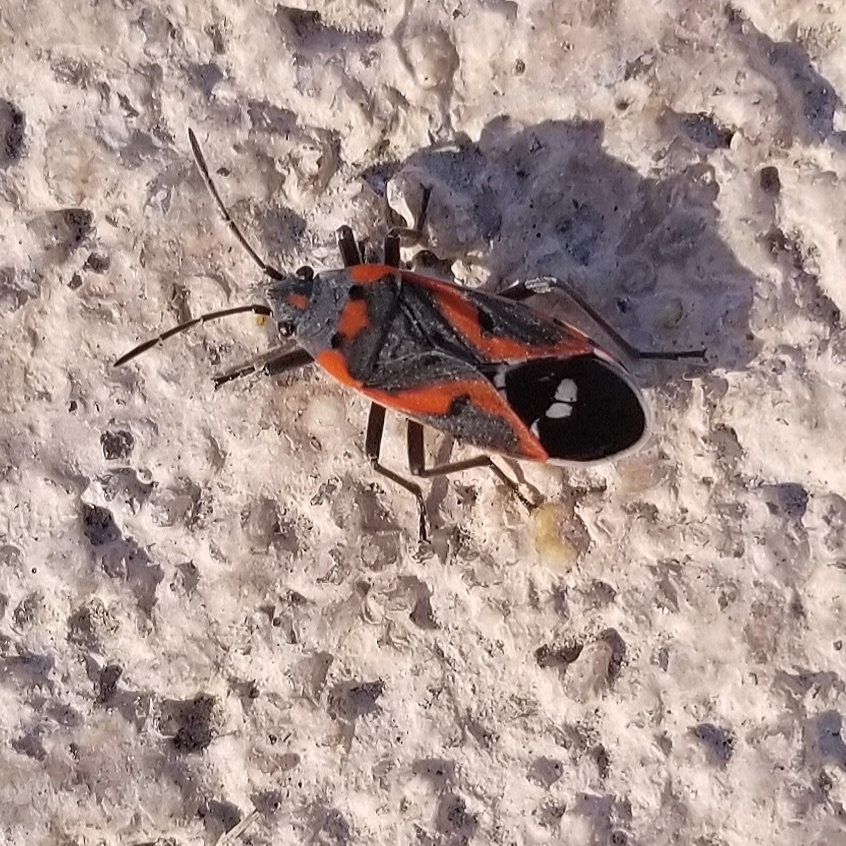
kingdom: Animalia
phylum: Arthropoda
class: Insecta
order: Hemiptera
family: Lygaeidae
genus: Lygaeus
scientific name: Lygaeus kalmii
